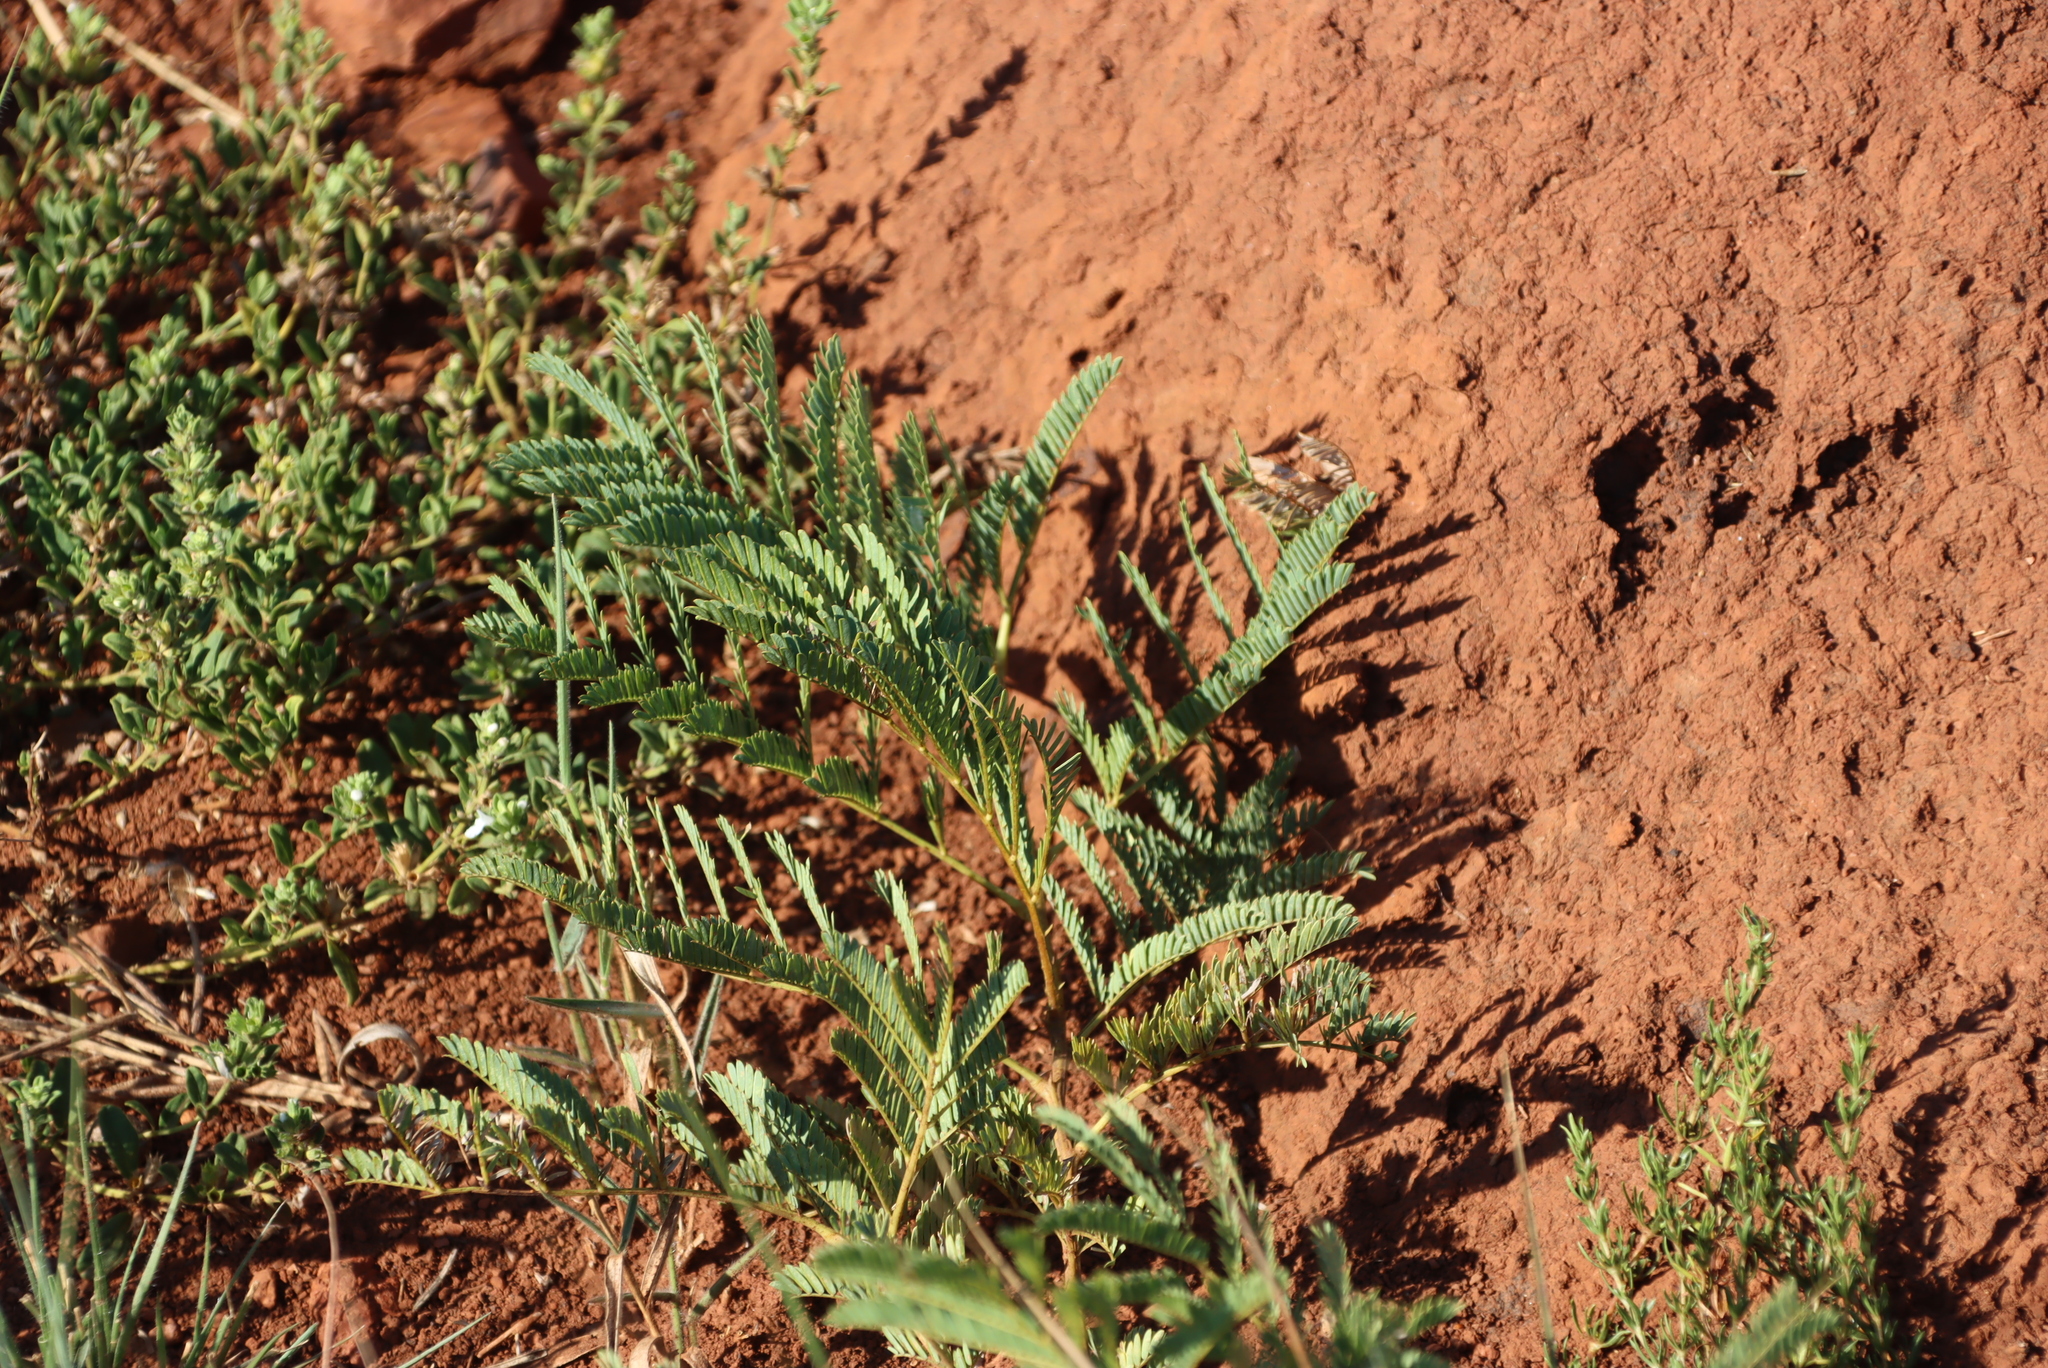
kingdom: Plantae
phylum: Tracheophyta
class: Magnoliopsida
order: Fabales
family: Fabaceae
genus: Elephantorrhiza
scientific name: Elephantorrhiza elephantina
